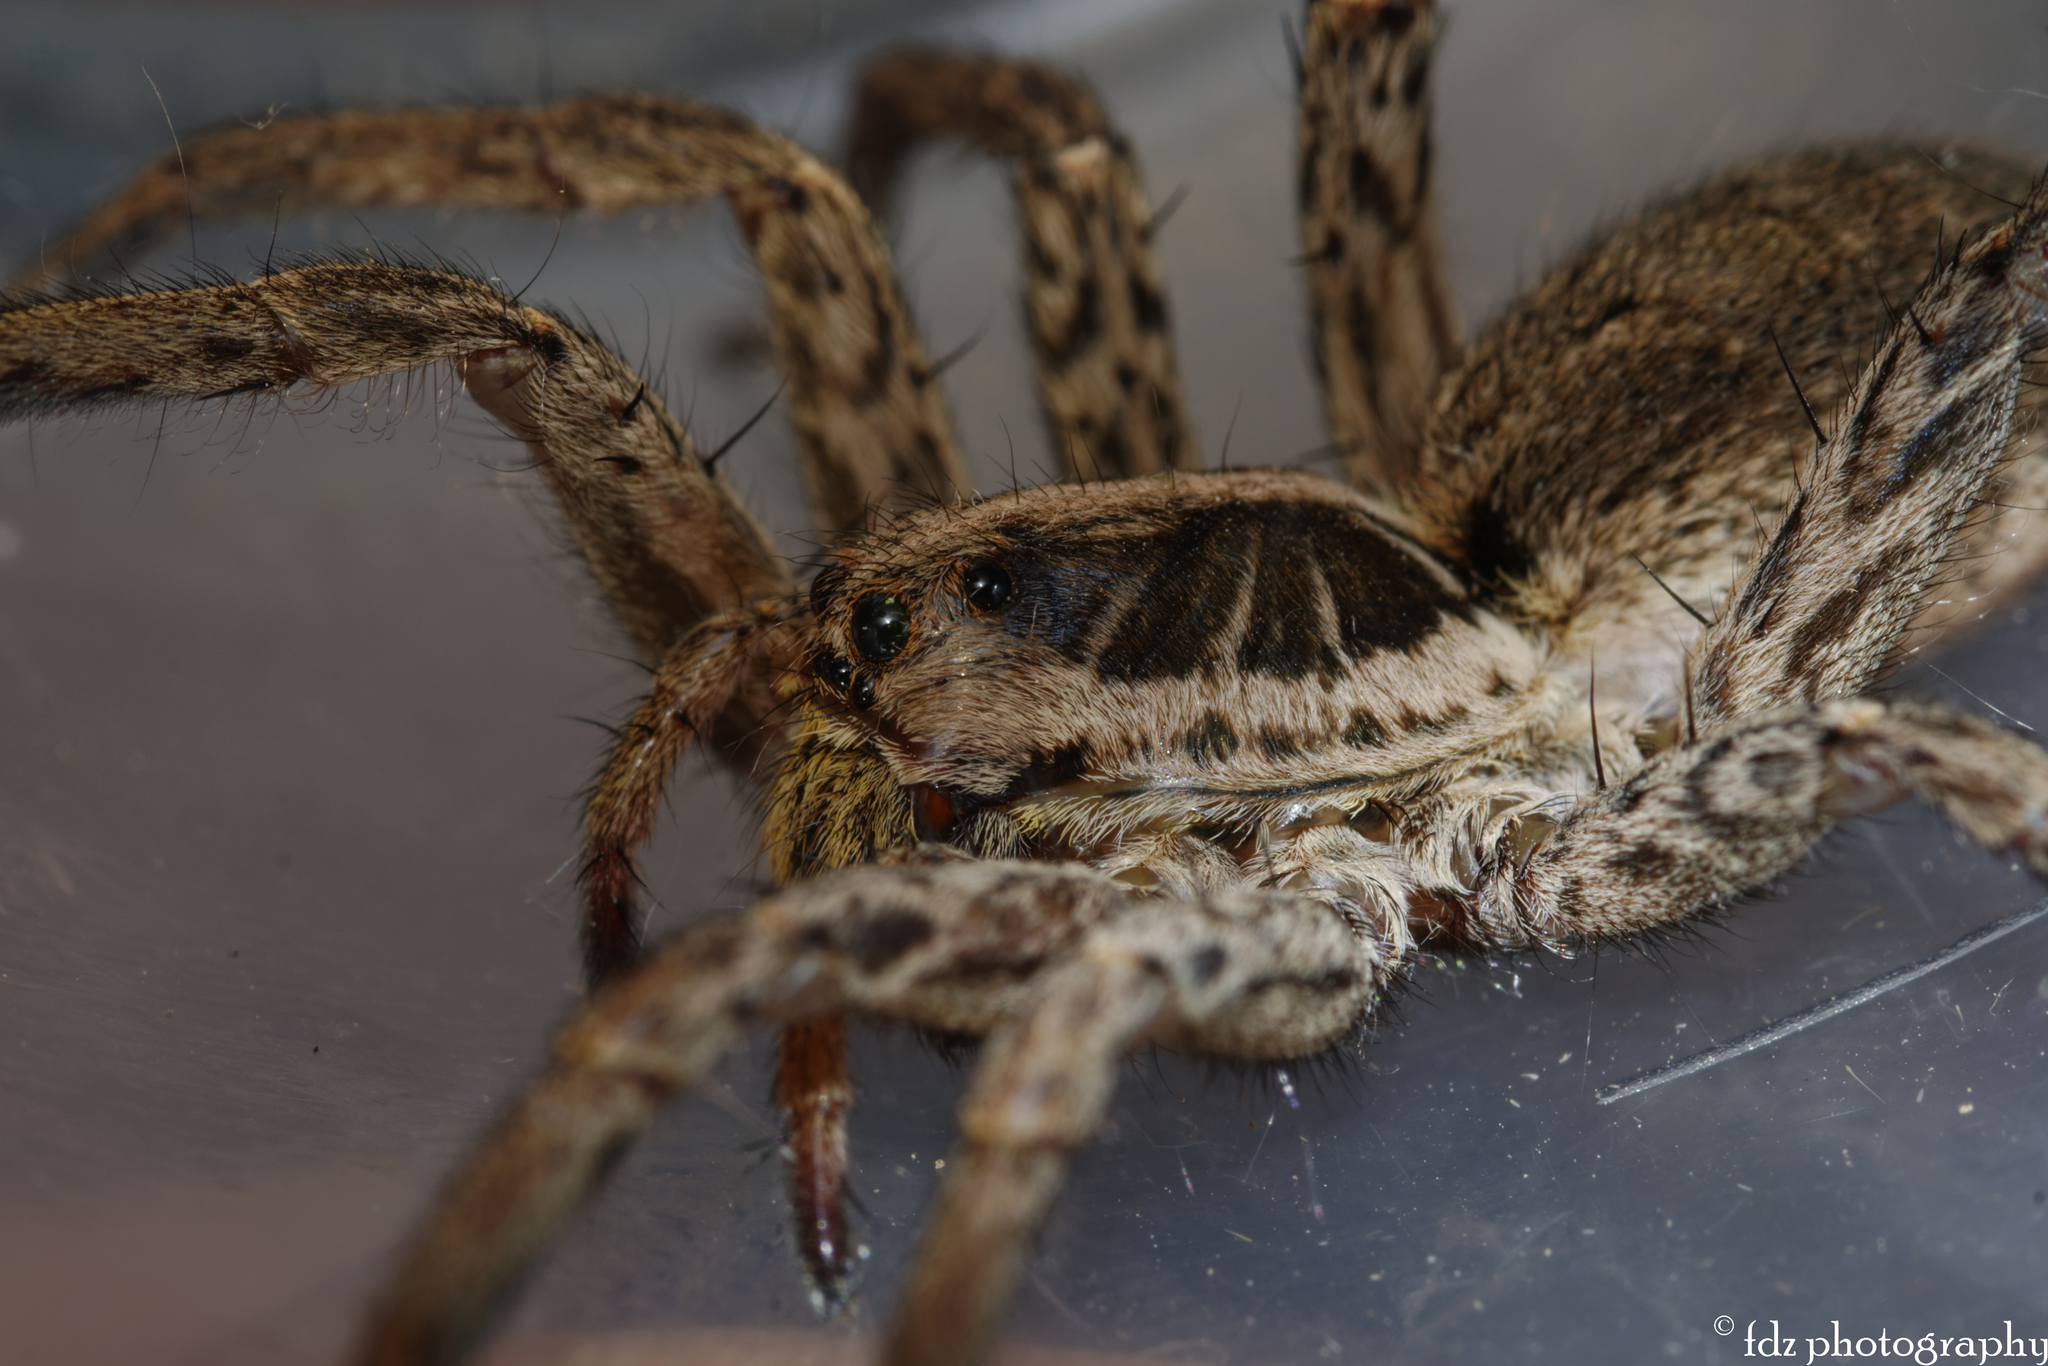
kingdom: Animalia
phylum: Arthropoda
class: Arachnida
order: Araneae
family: Lycosidae
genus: Hogna
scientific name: Hogna radiata
